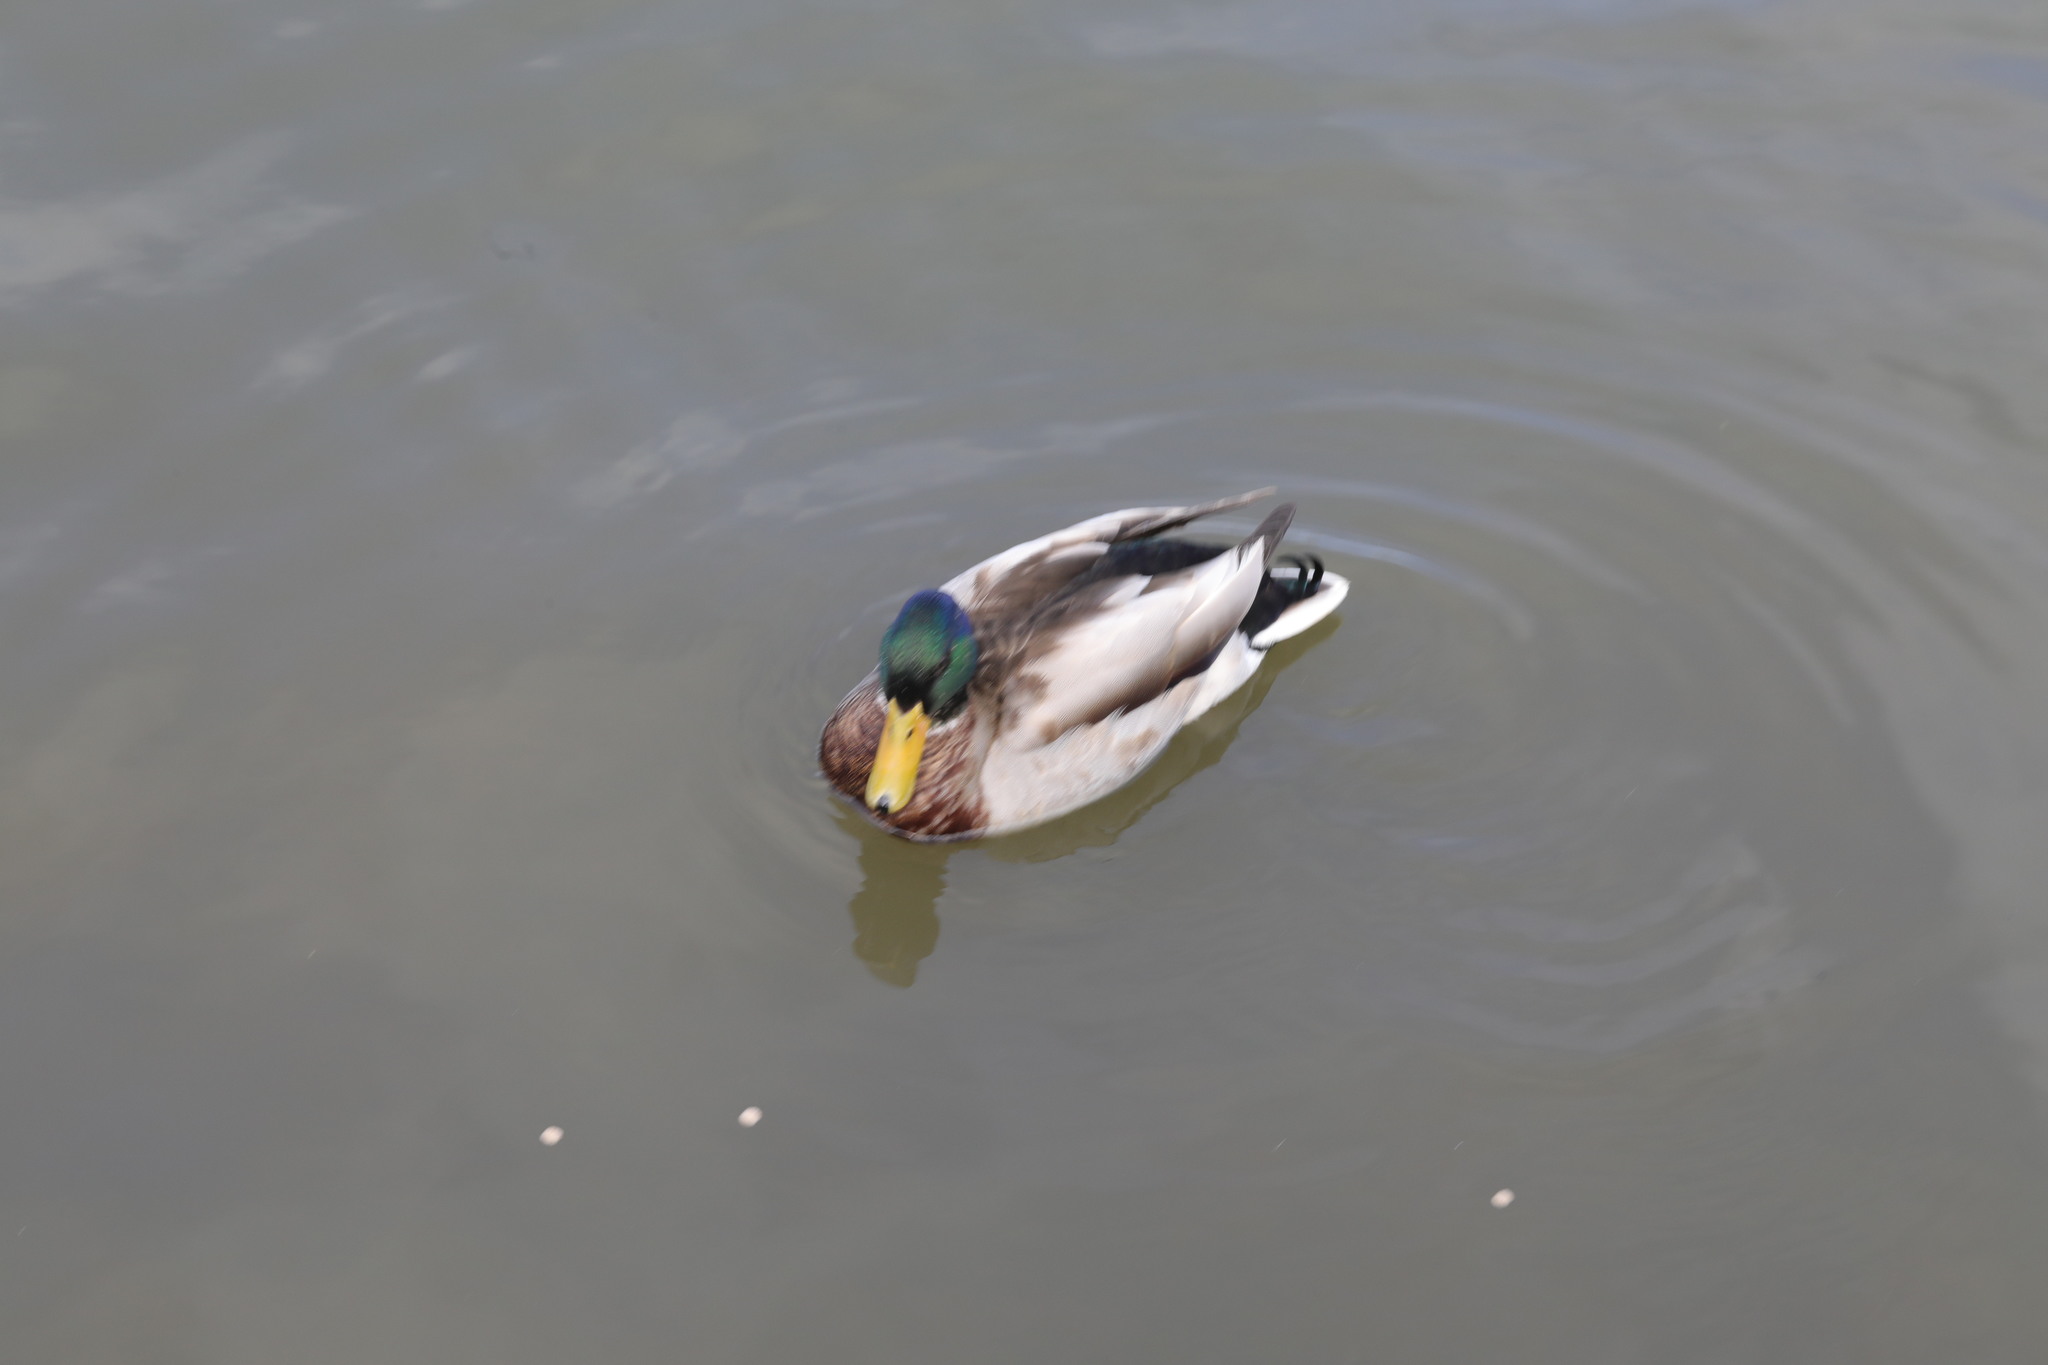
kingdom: Animalia
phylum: Chordata
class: Aves
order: Anseriformes
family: Anatidae
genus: Anas
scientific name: Anas platyrhynchos
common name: Mallard
